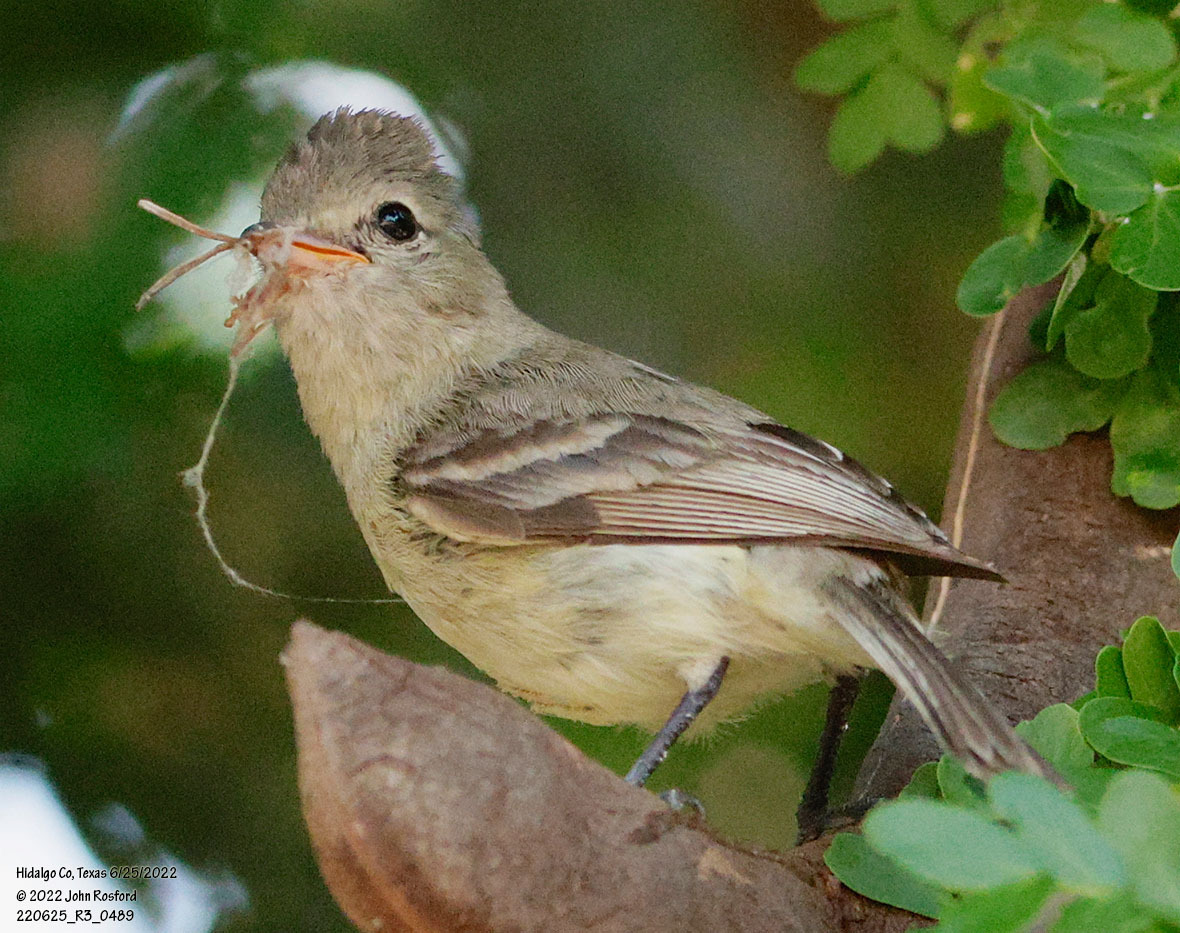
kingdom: Animalia
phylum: Chordata
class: Aves
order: Passeriformes
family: Tyrannidae
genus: Camptostoma
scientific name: Camptostoma imberbe
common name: Northern beardless-tyrannulet
